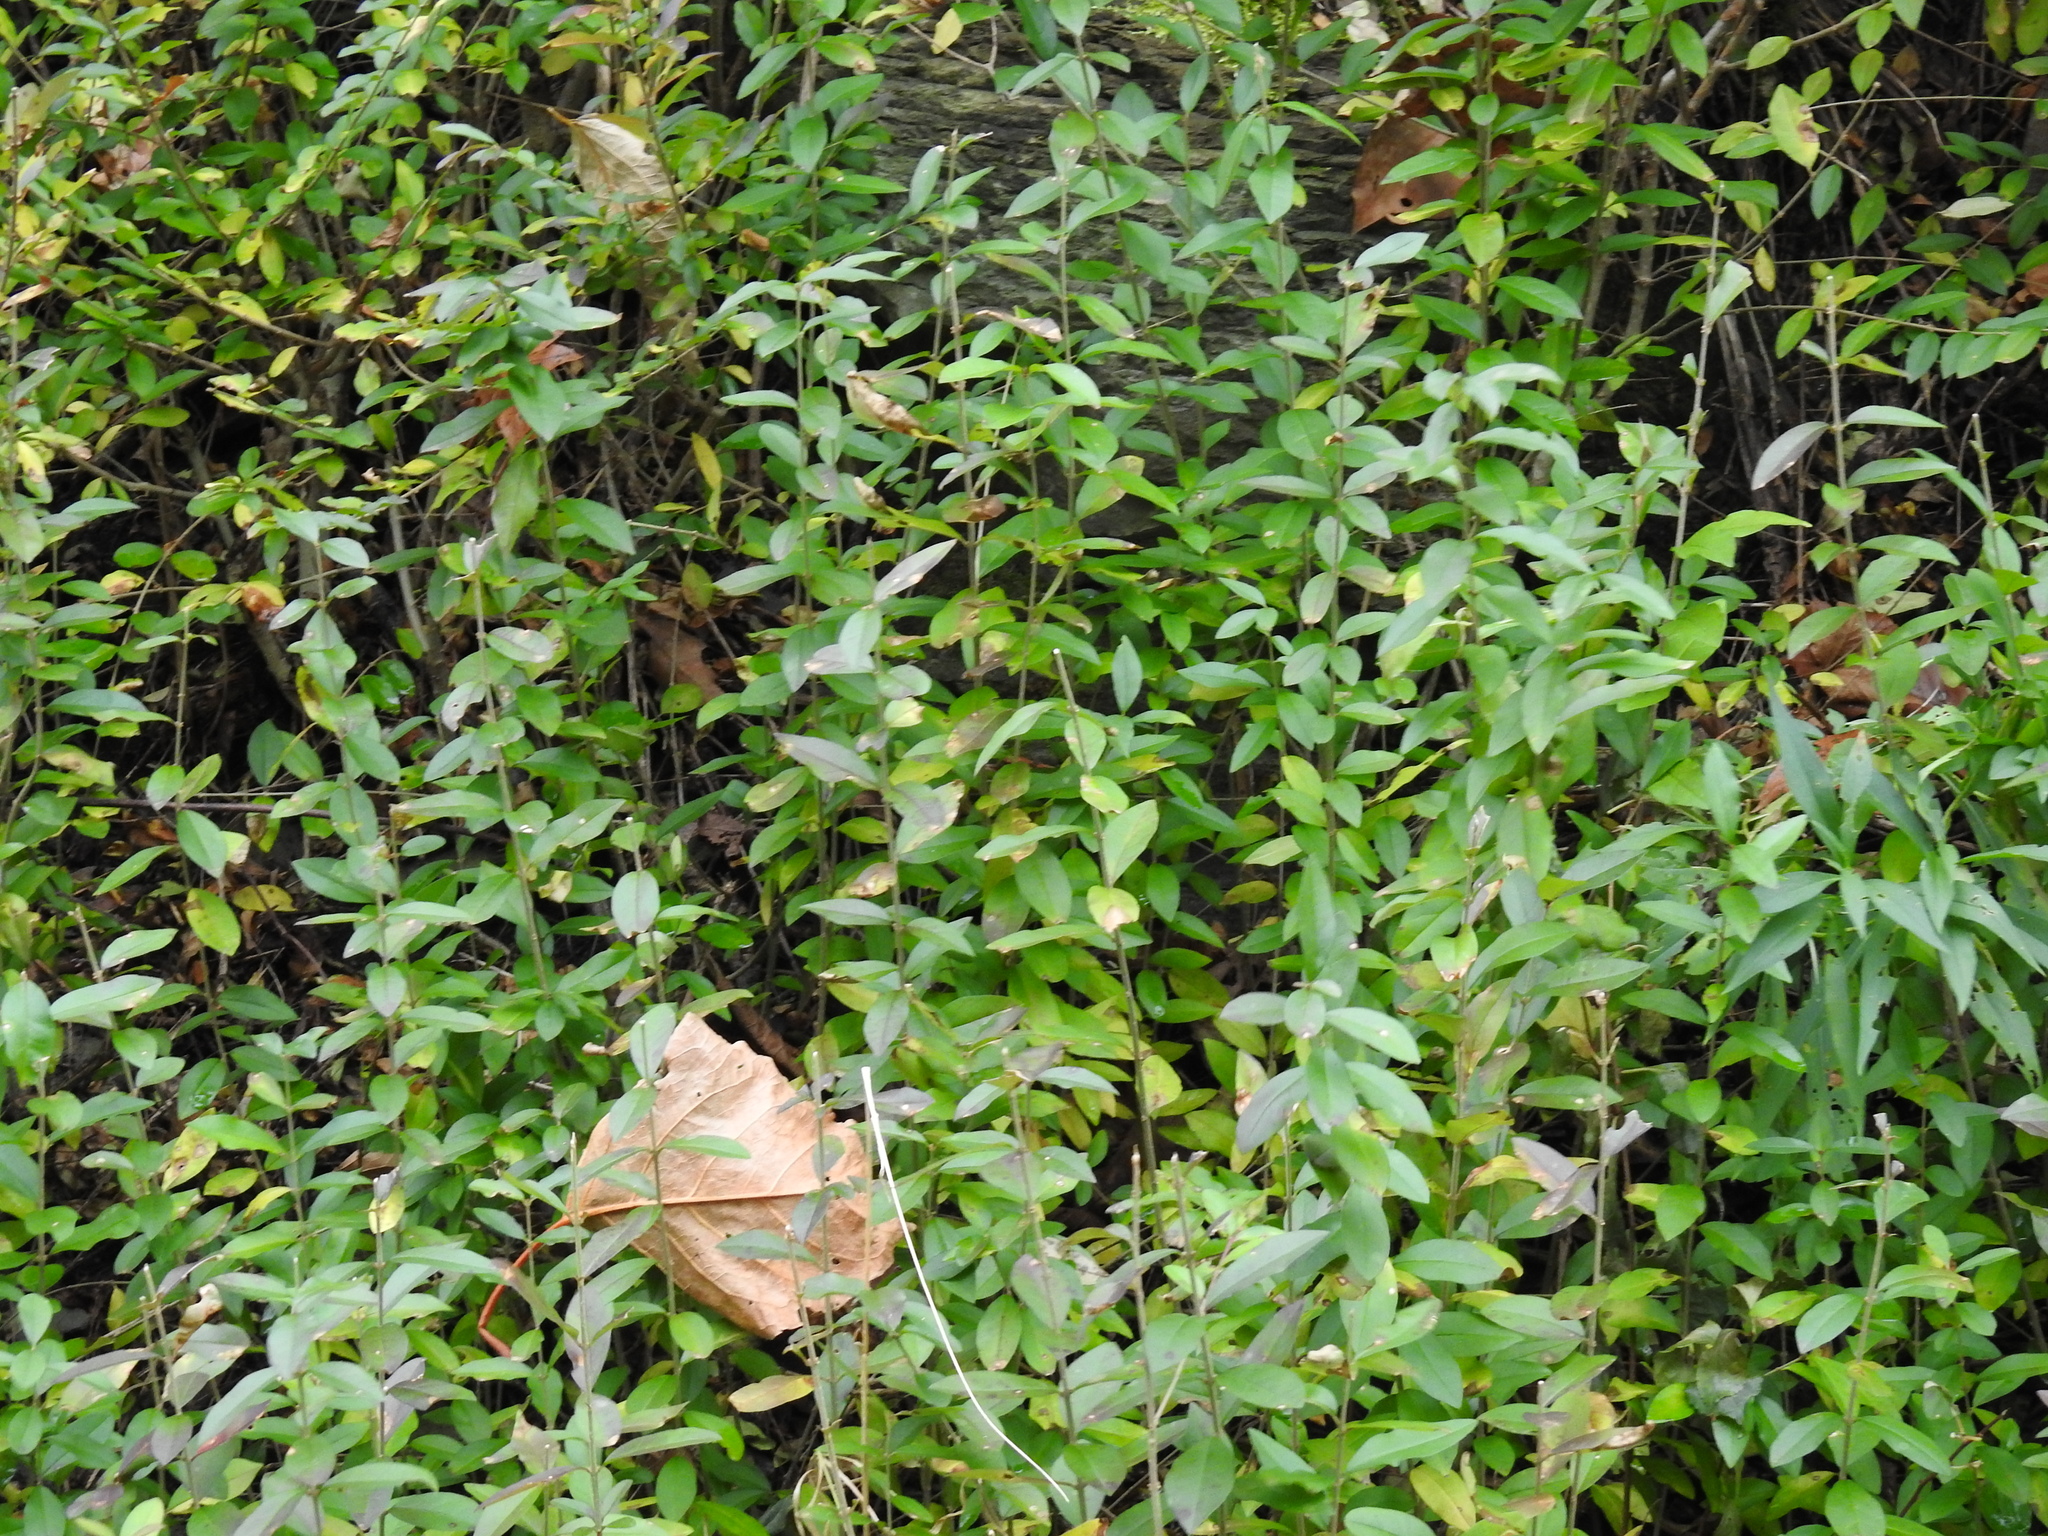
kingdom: Plantae
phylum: Tracheophyta
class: Magnoliopsida
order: Lamiales
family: Oleaceae
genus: Ligustrum
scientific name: Ligustrum
